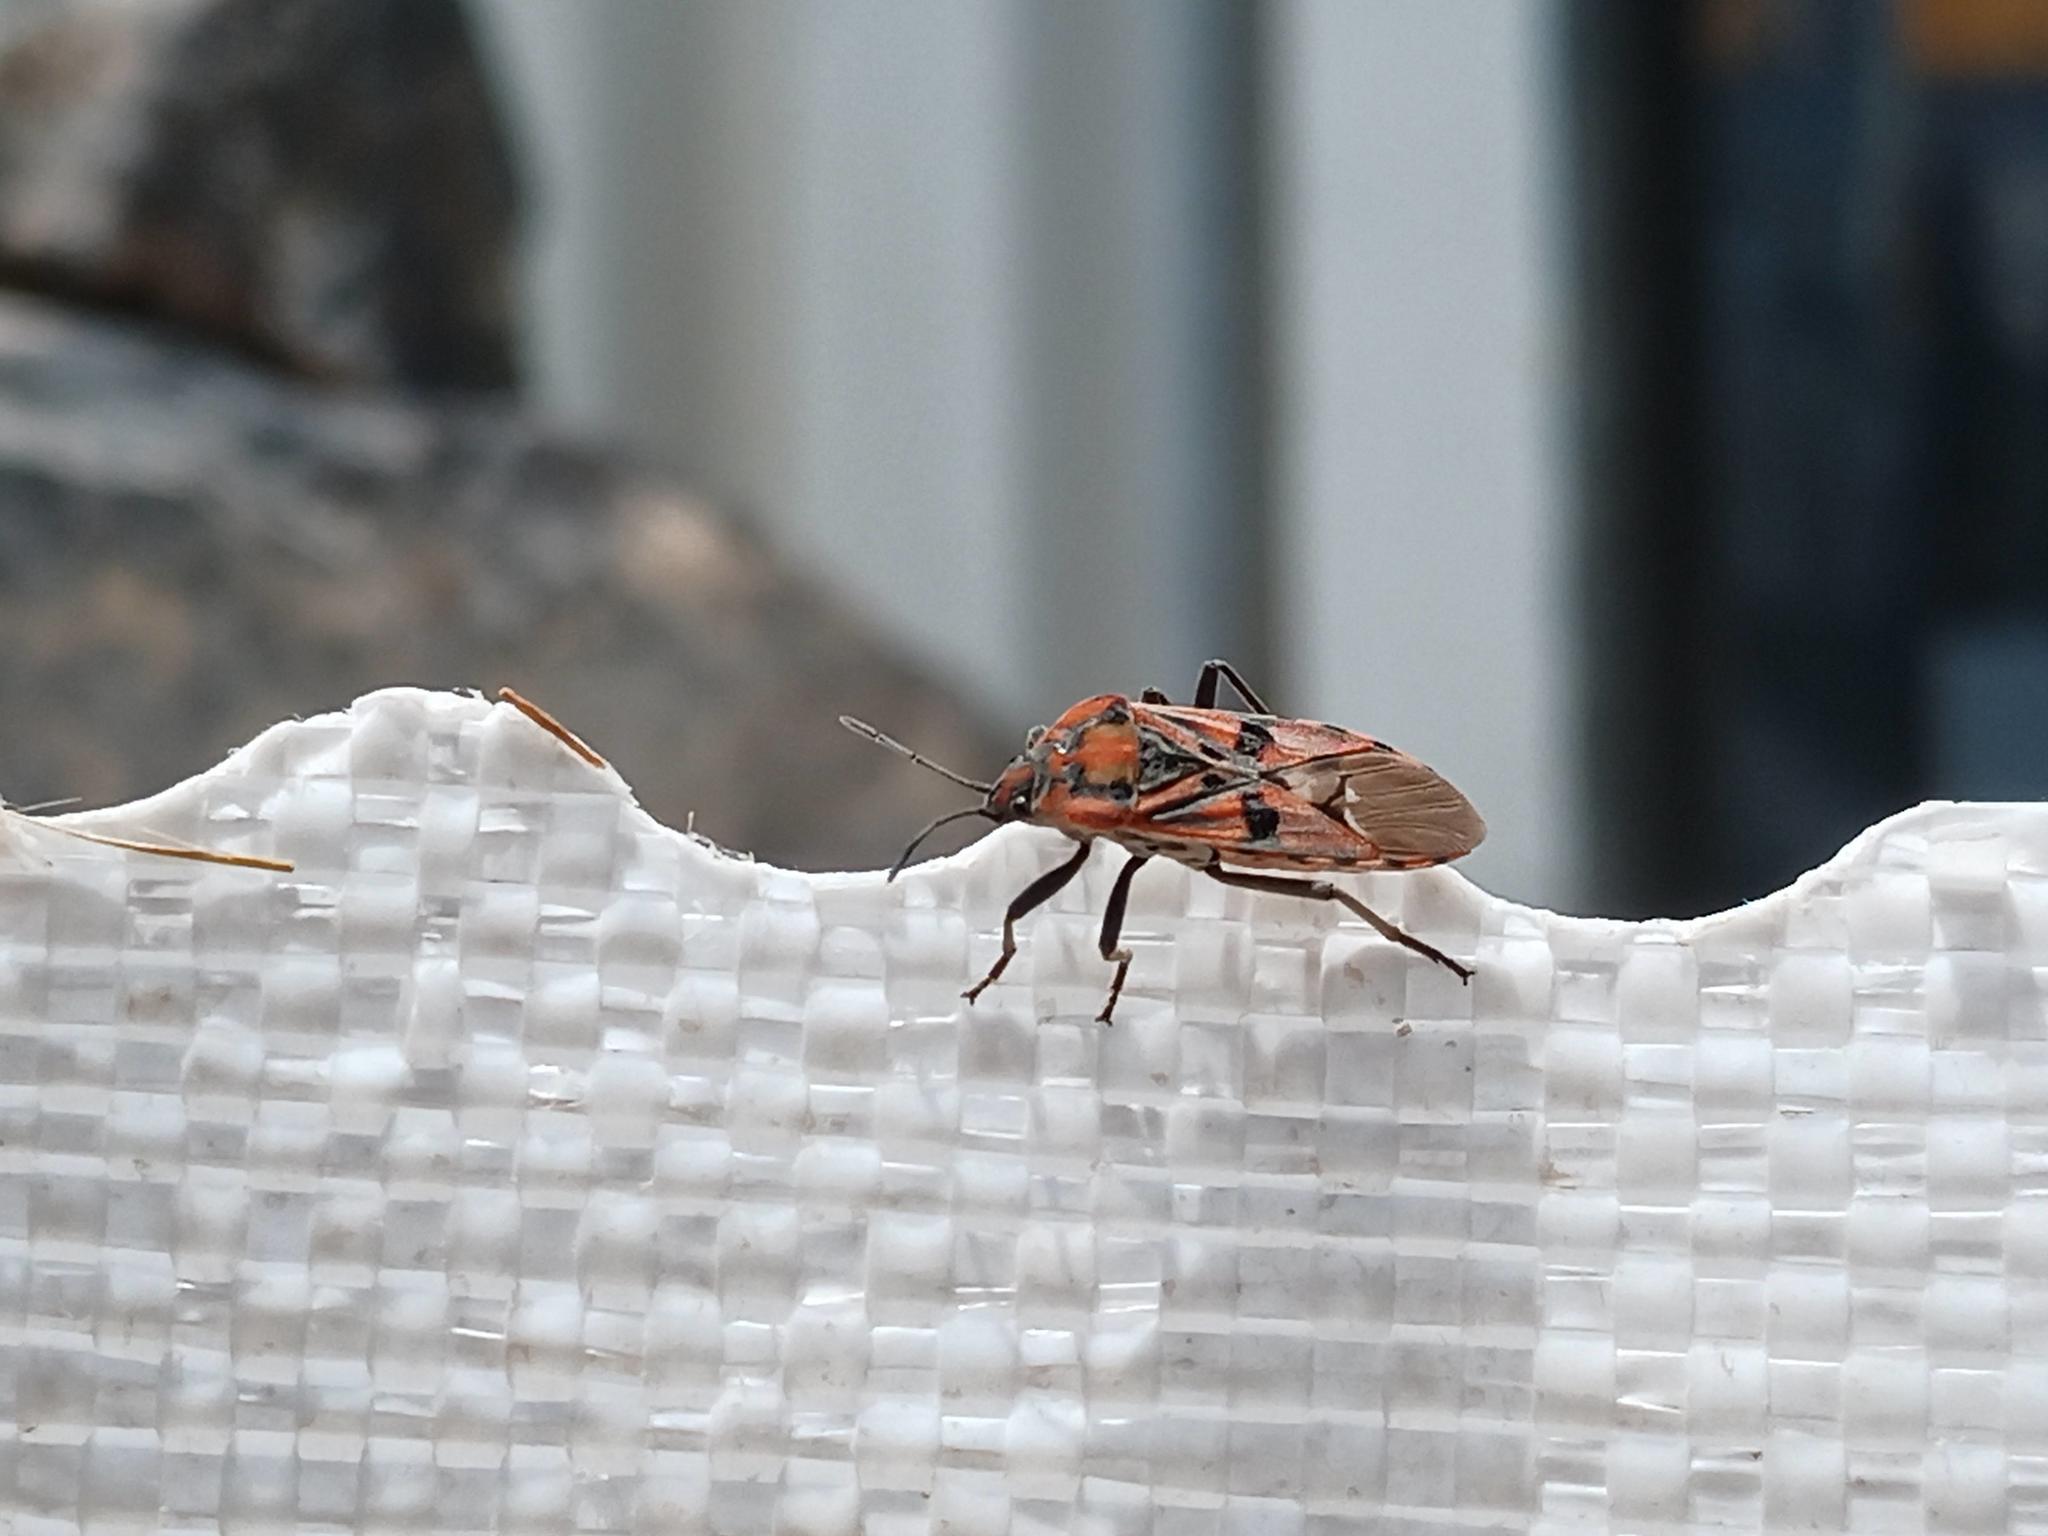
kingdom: Animalia
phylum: Arthropoda
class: Insecta
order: Hemiptera
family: Lygaeidae
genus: Spilostethus
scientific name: Spilostethus pandurus
